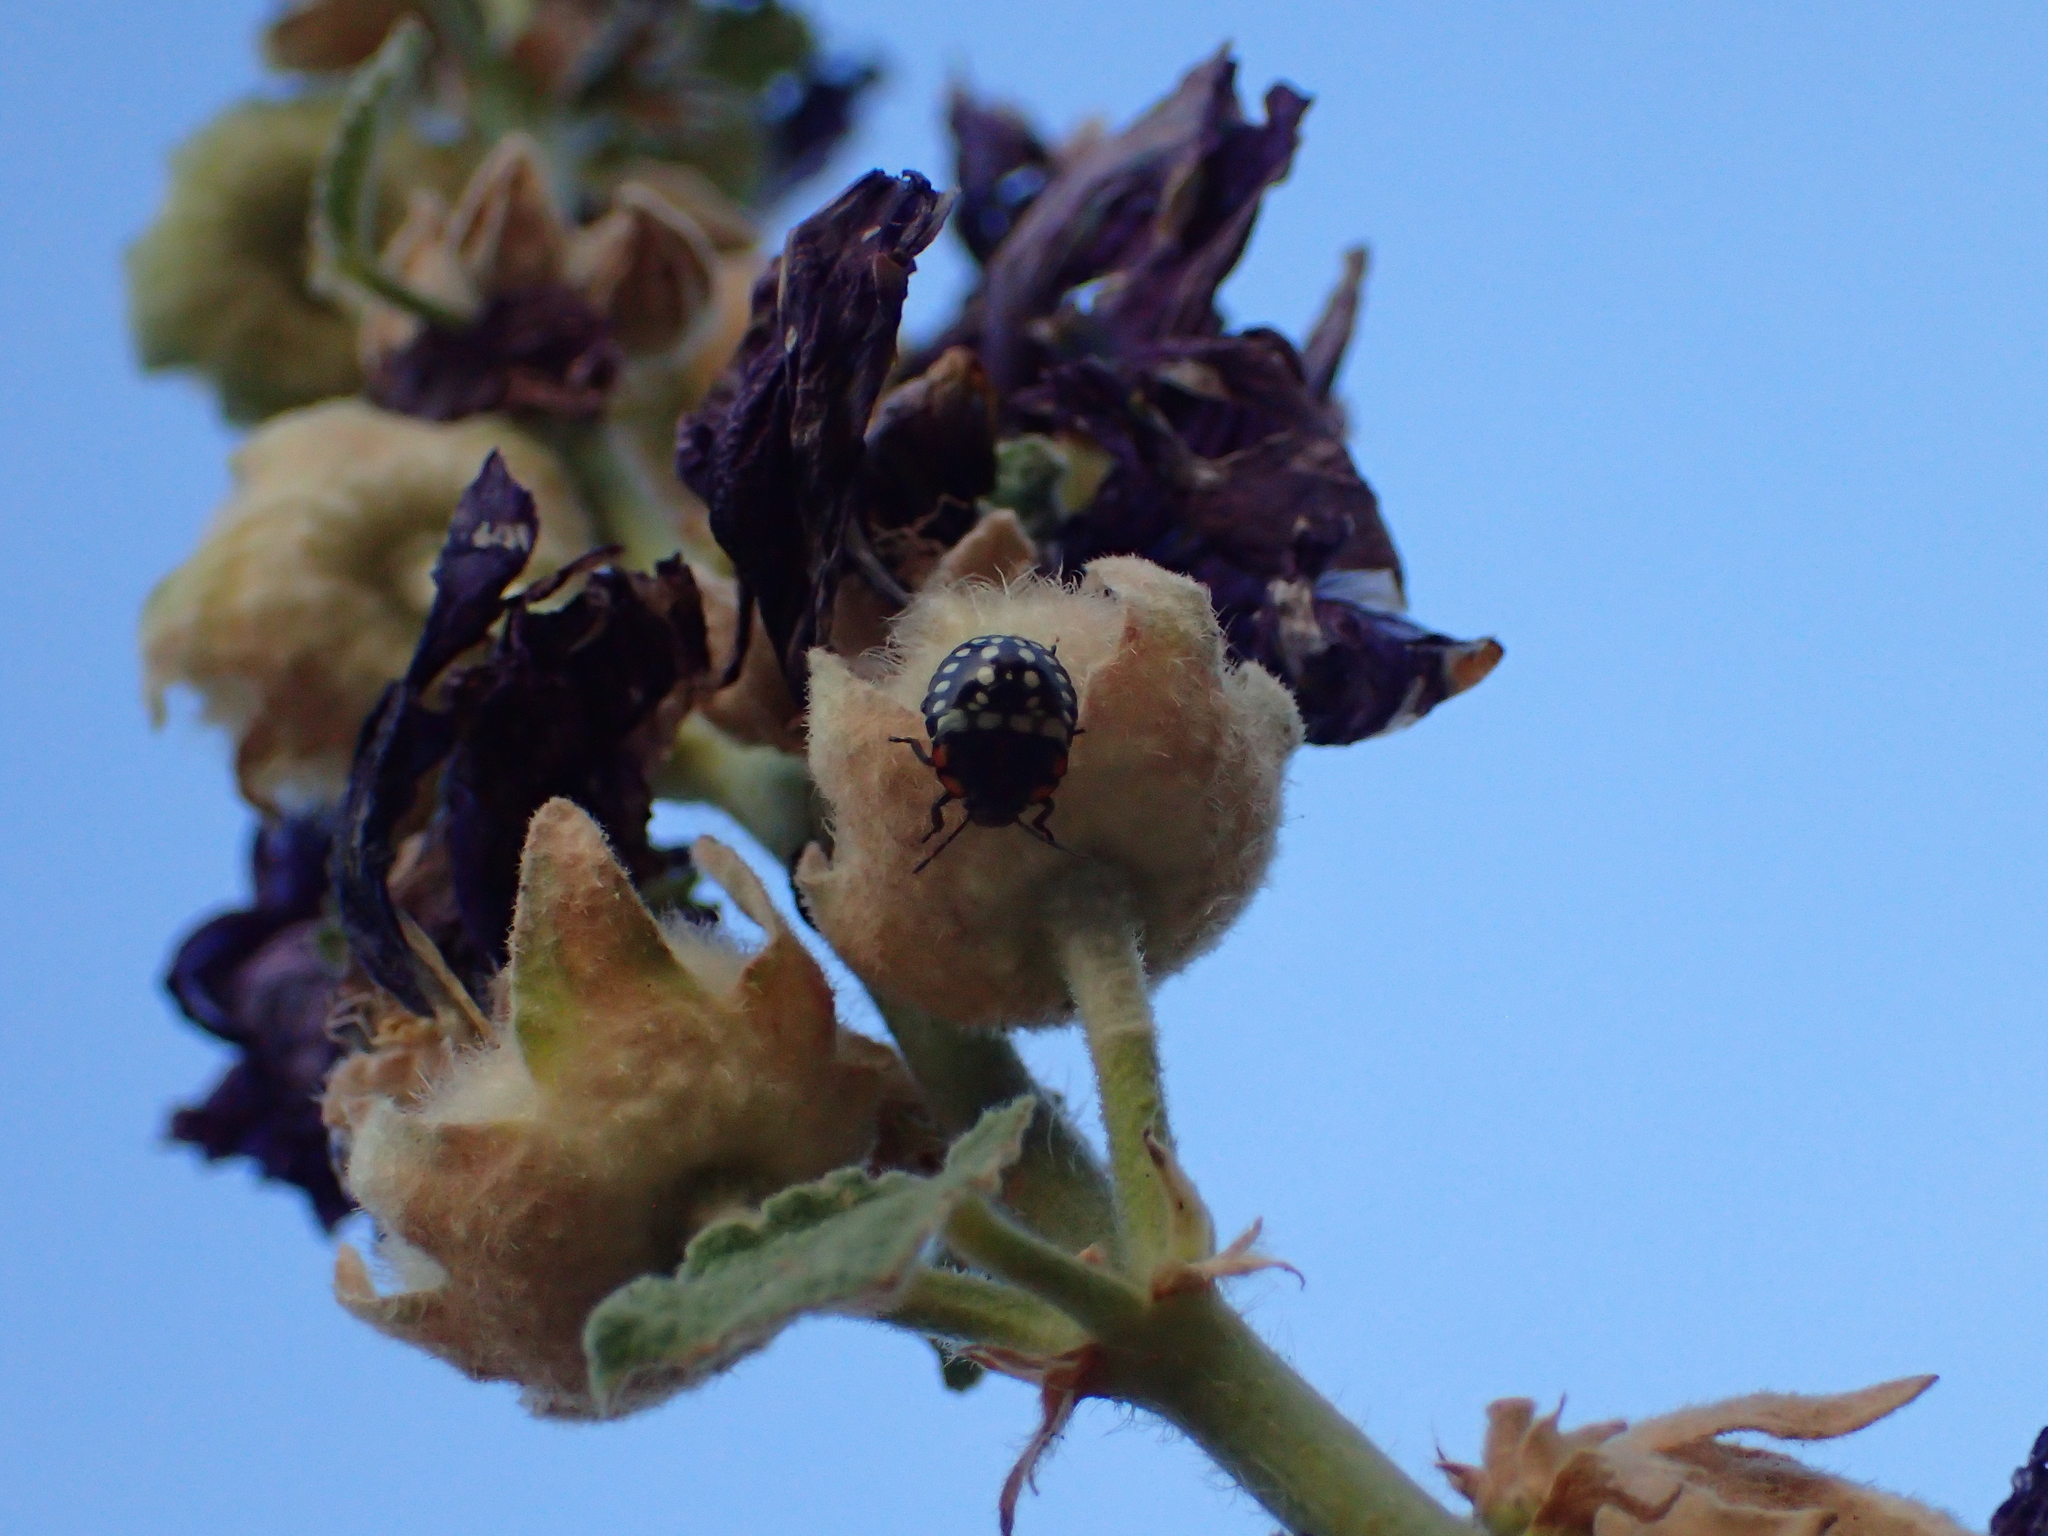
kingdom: Animalia
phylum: Arthropoda
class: Insecta
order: Hemiptera
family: Pentatomidae
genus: Nezara
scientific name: Nezara viridula
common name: Southern green stink bug
